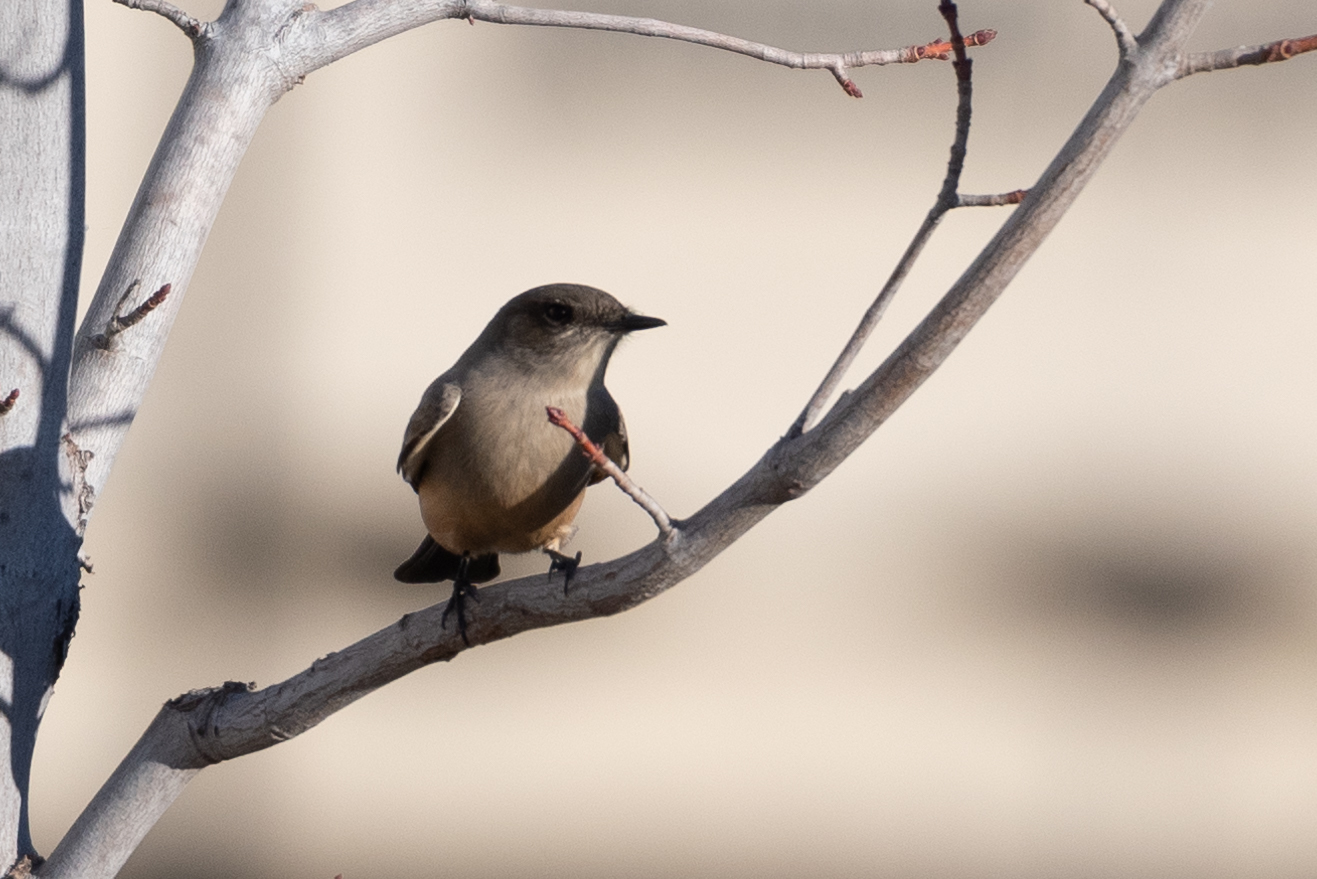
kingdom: Animalia
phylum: Chordata
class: Aves
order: Passeriformes
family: Tyrannidae
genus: Sayornis
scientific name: Sayornis saya
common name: Say's phoebe
